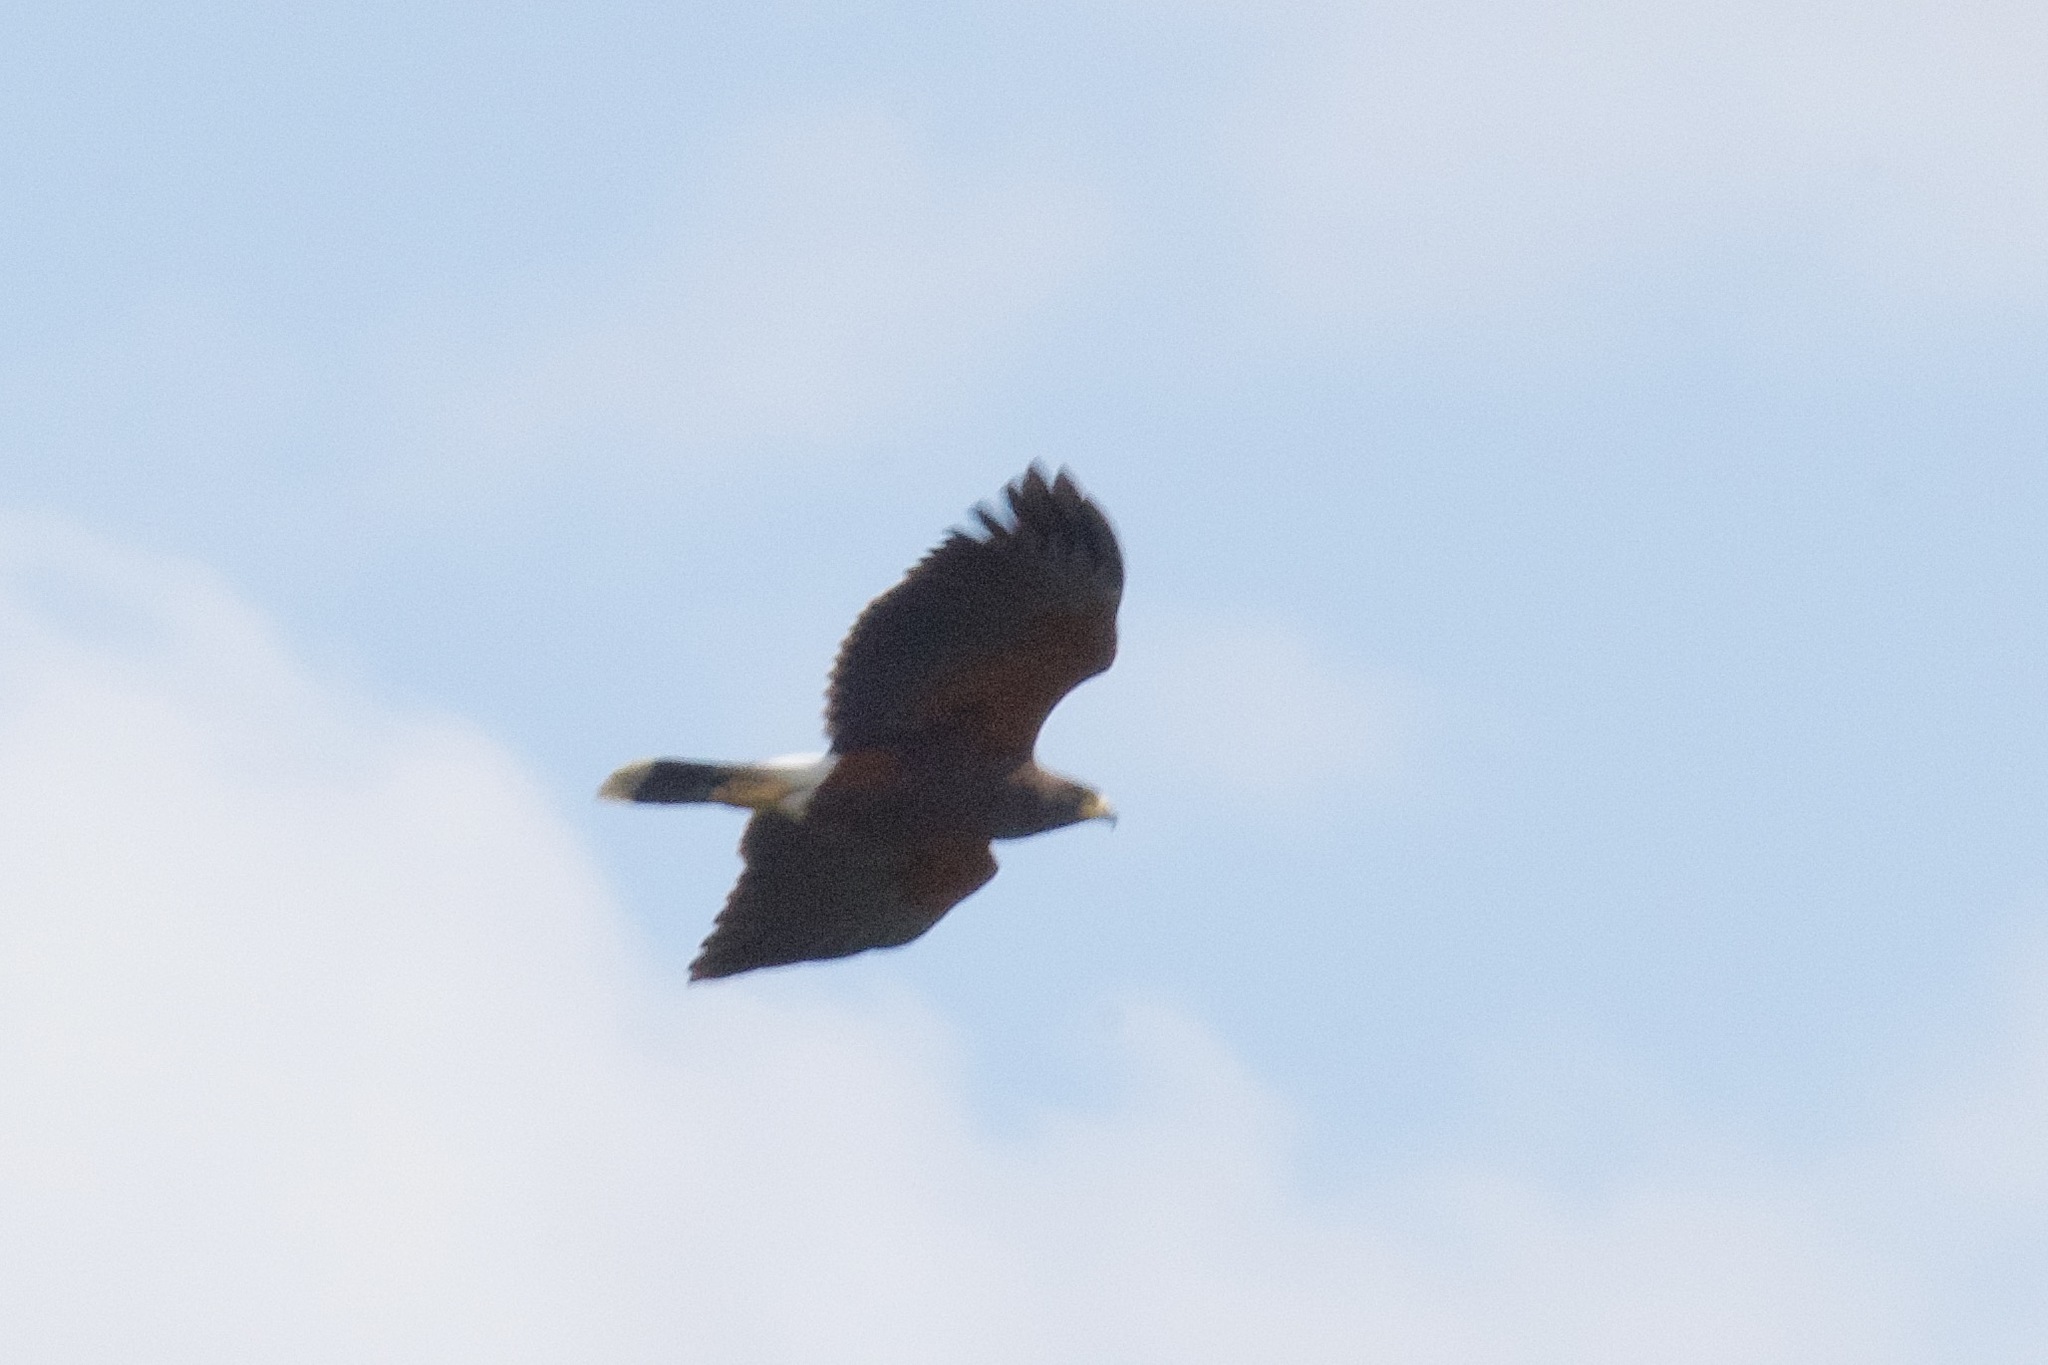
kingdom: Animalia
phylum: Chordata
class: Aves
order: Accipitriformes
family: Accipitridae
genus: Parabuteo
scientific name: Parabuteo unicinctus
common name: Harris's hawk
